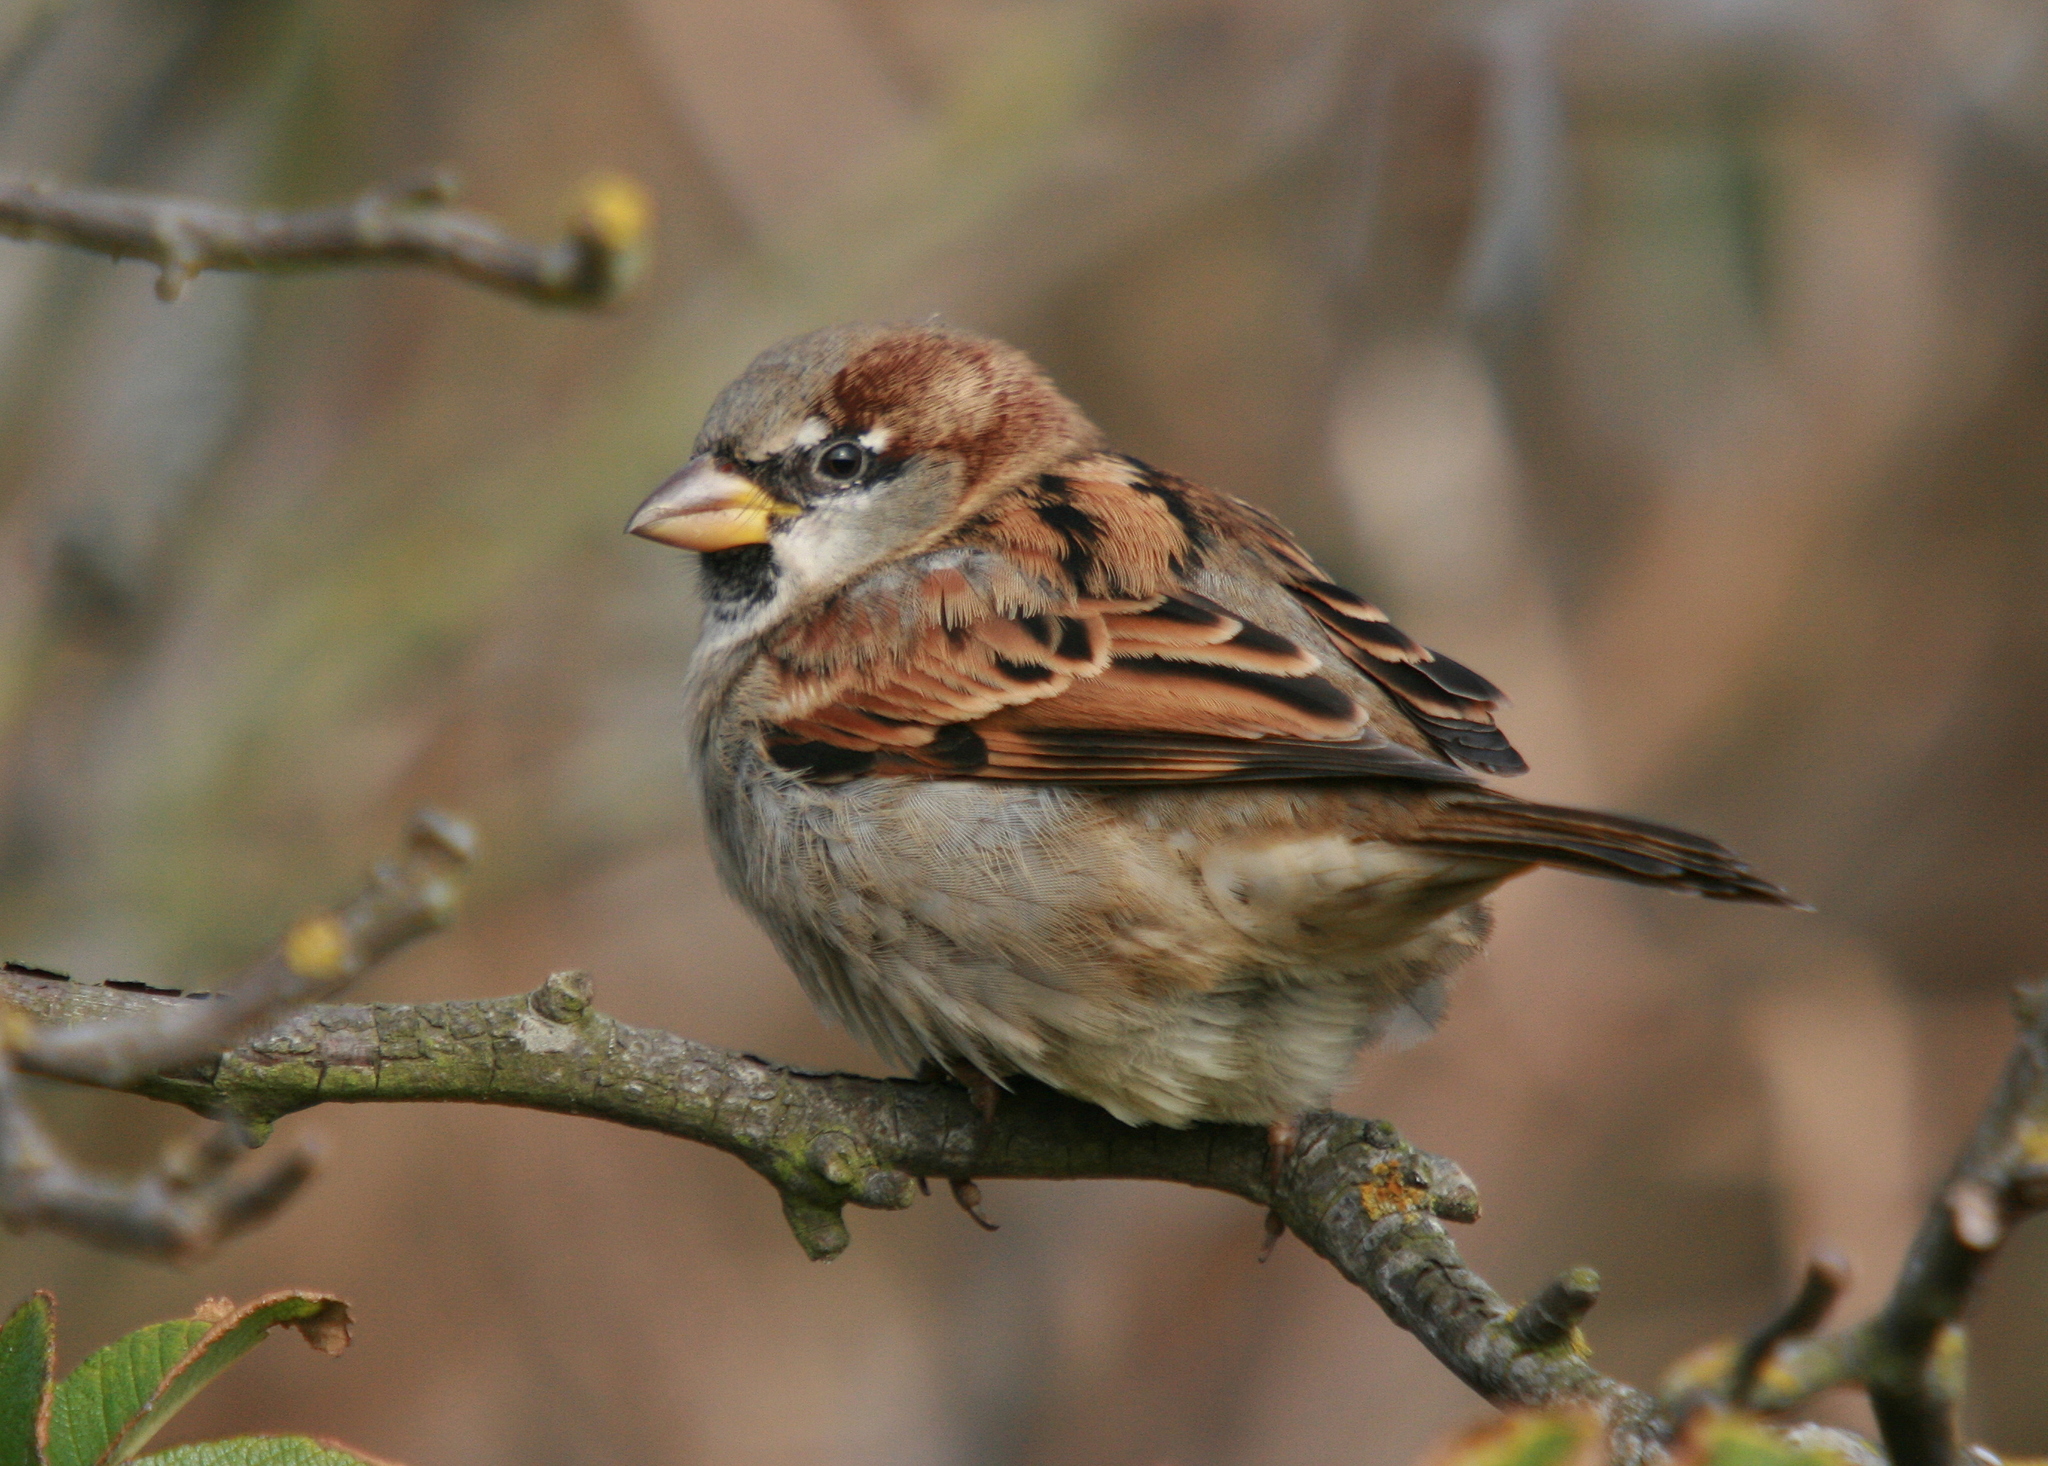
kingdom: Animalia
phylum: Chordata
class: Aves
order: Passeriformes
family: Passeridae
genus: Passer
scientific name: Passer domesticus
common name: House sparrow
